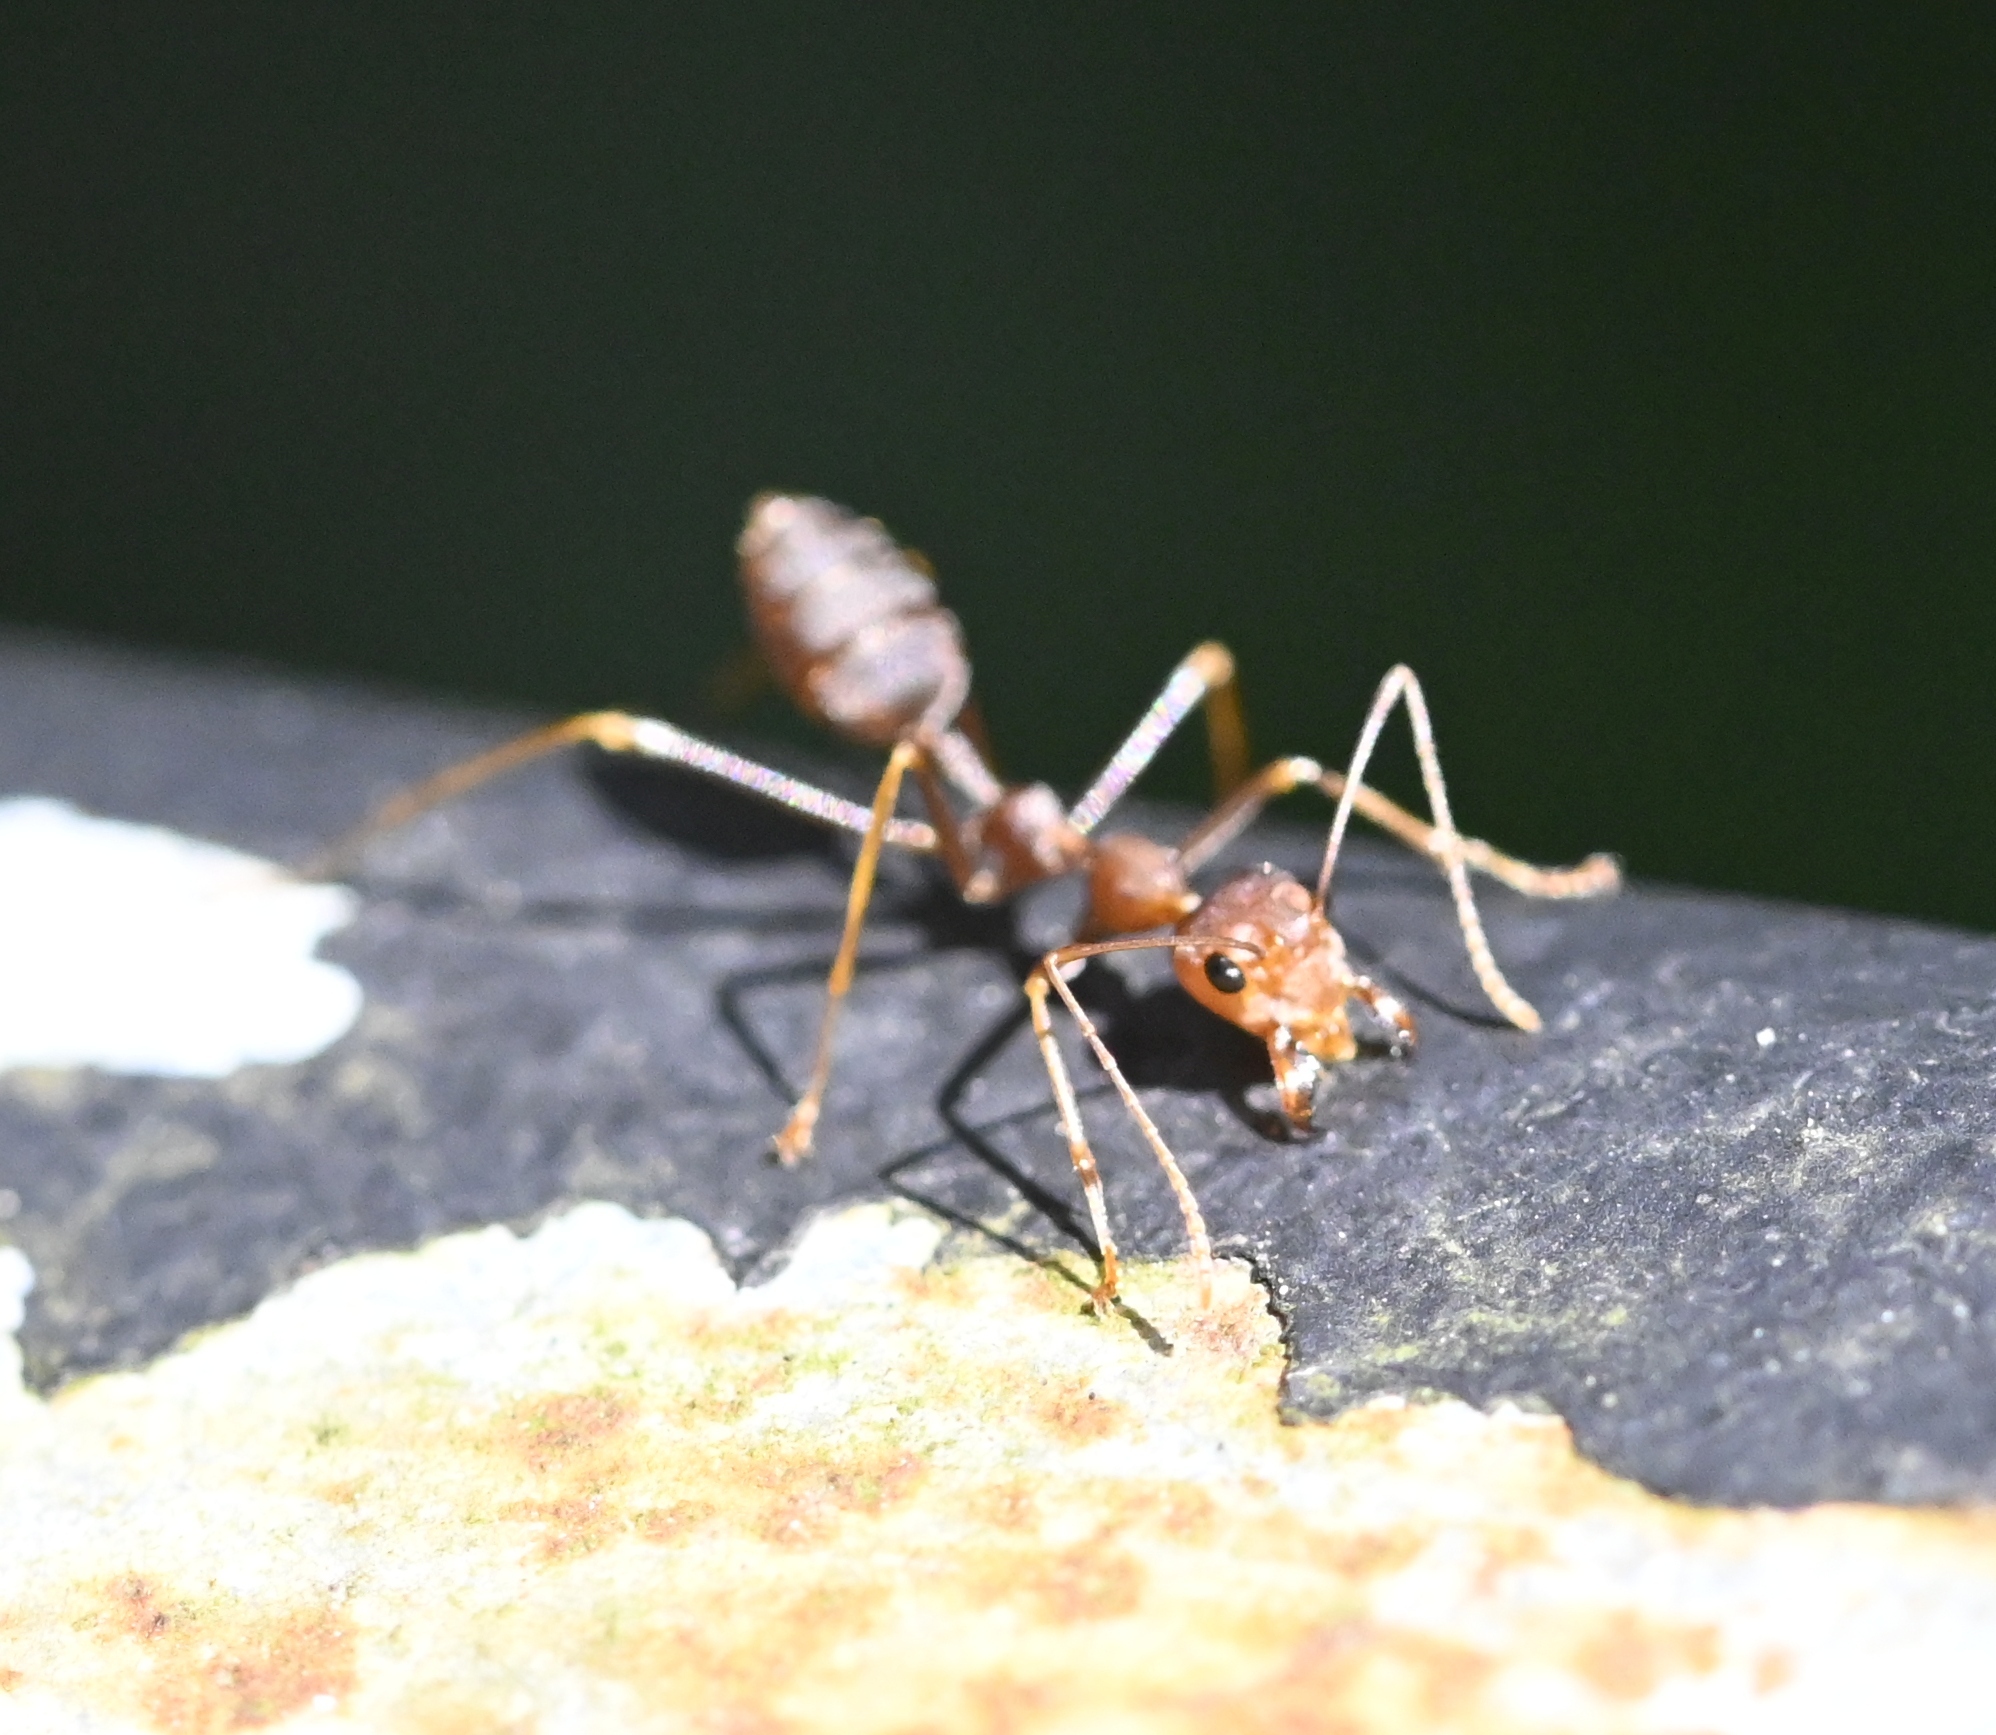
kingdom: Animalia
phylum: Arthropoda
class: Insecta
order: Hymenoptera
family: Formicidae
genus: Oecophylla
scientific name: Oecophylla smaragdina
